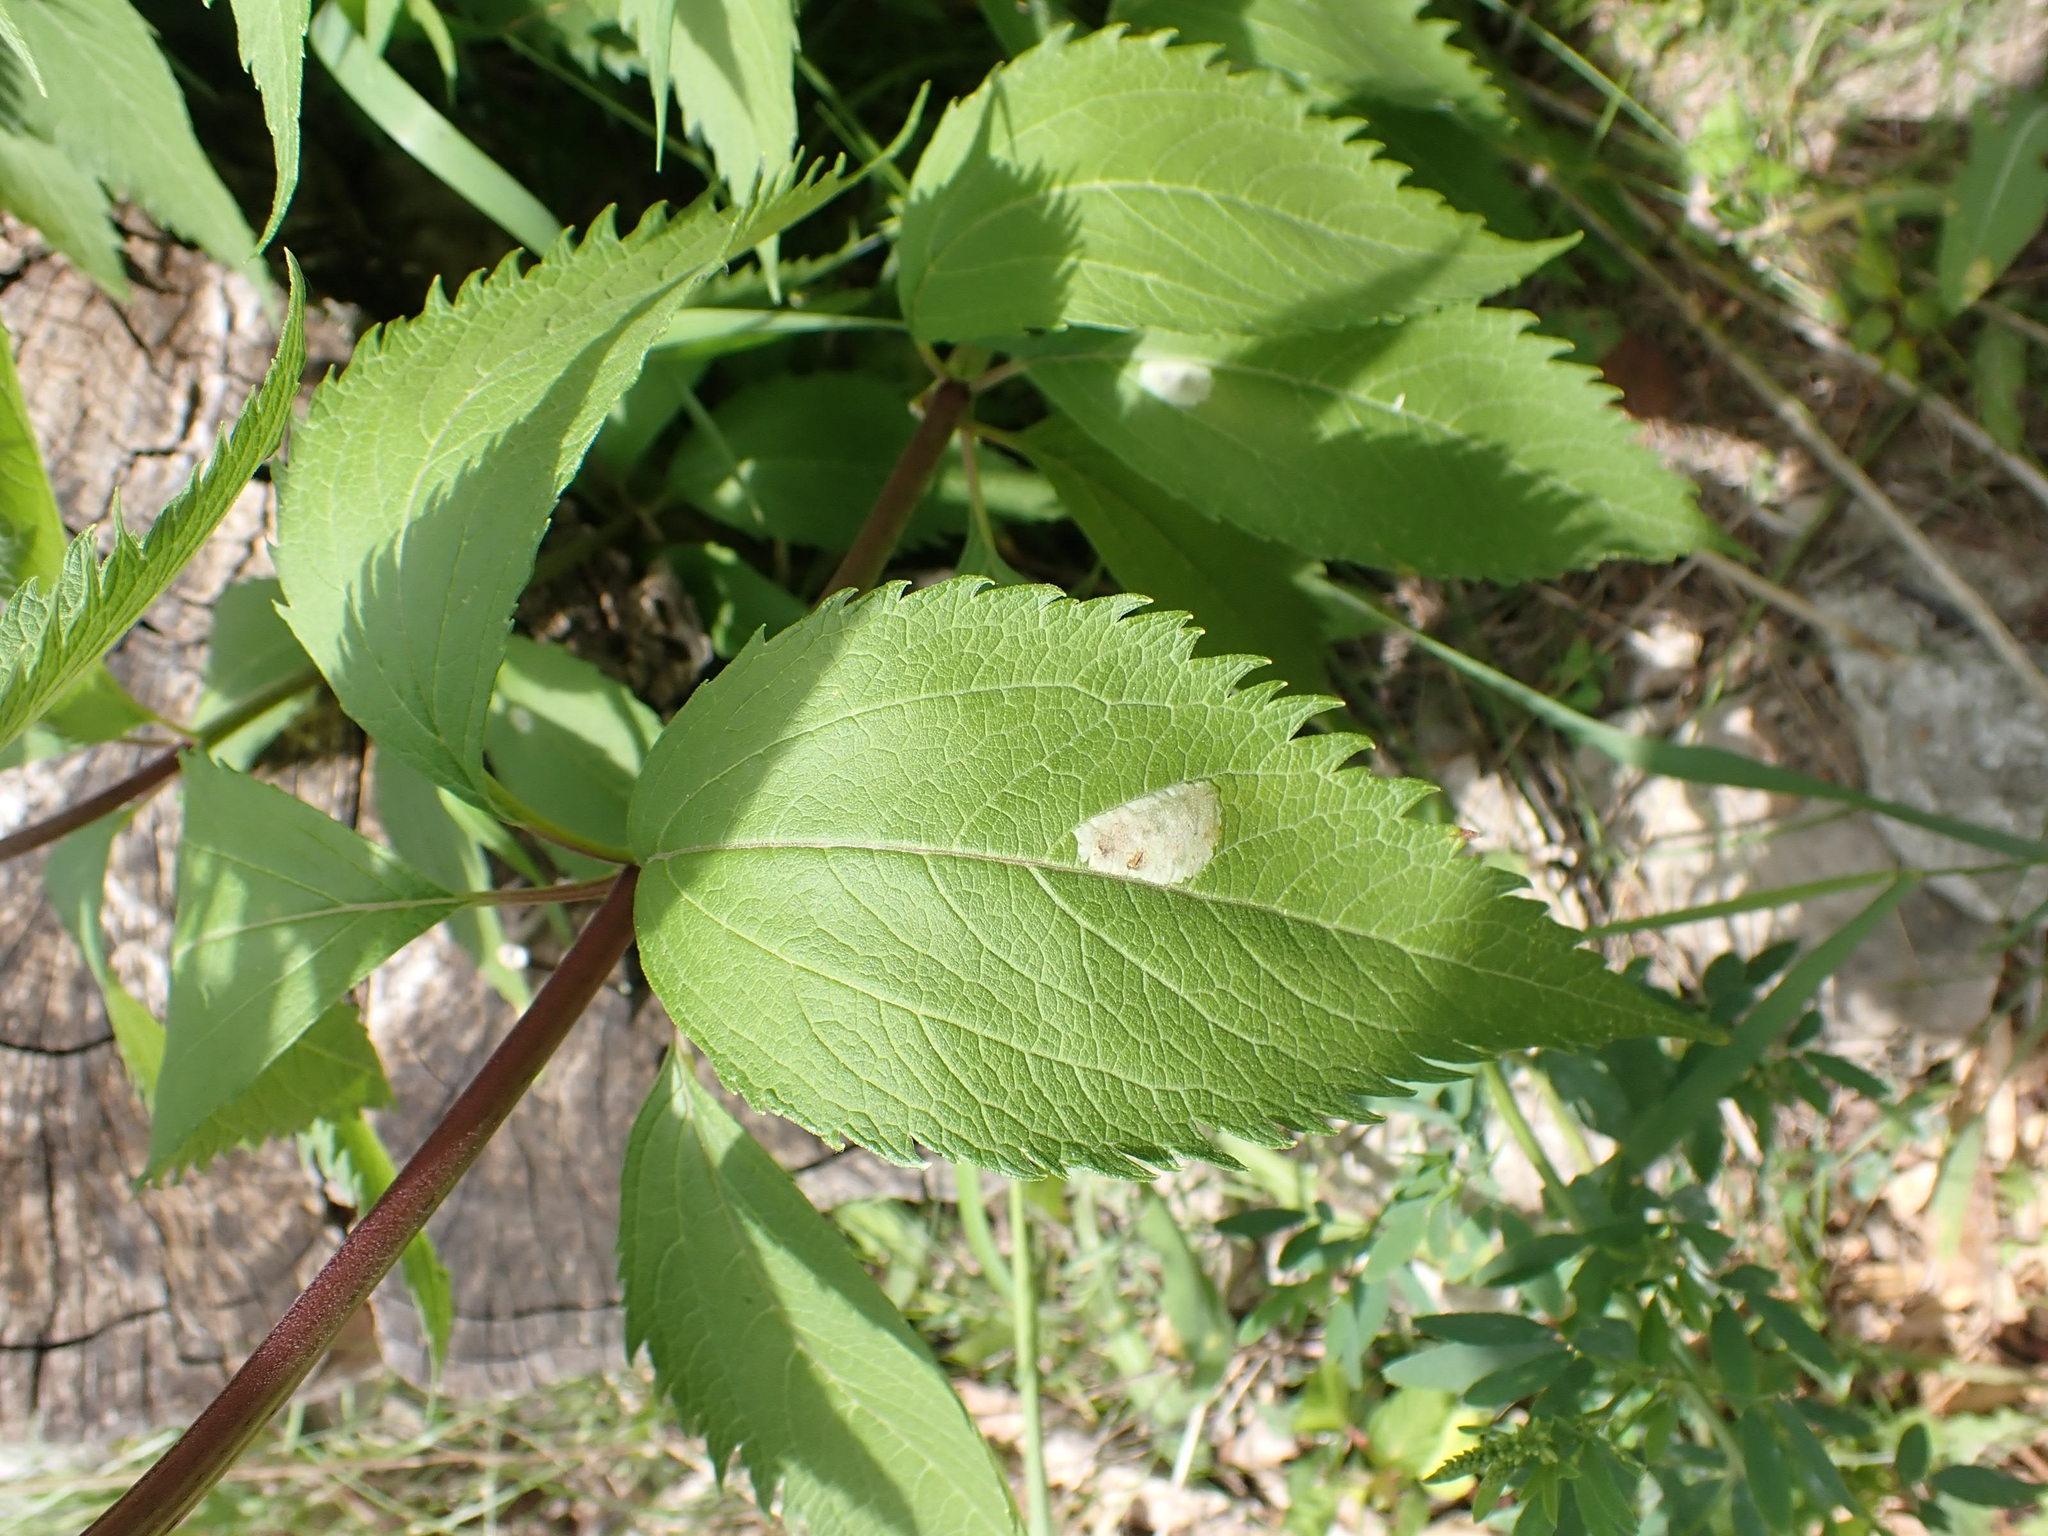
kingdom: Animalia
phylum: Arthropoda
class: Insecta
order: Diptera
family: Agromyzidae
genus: Calycomyza
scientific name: Calycomyza flavinotum
